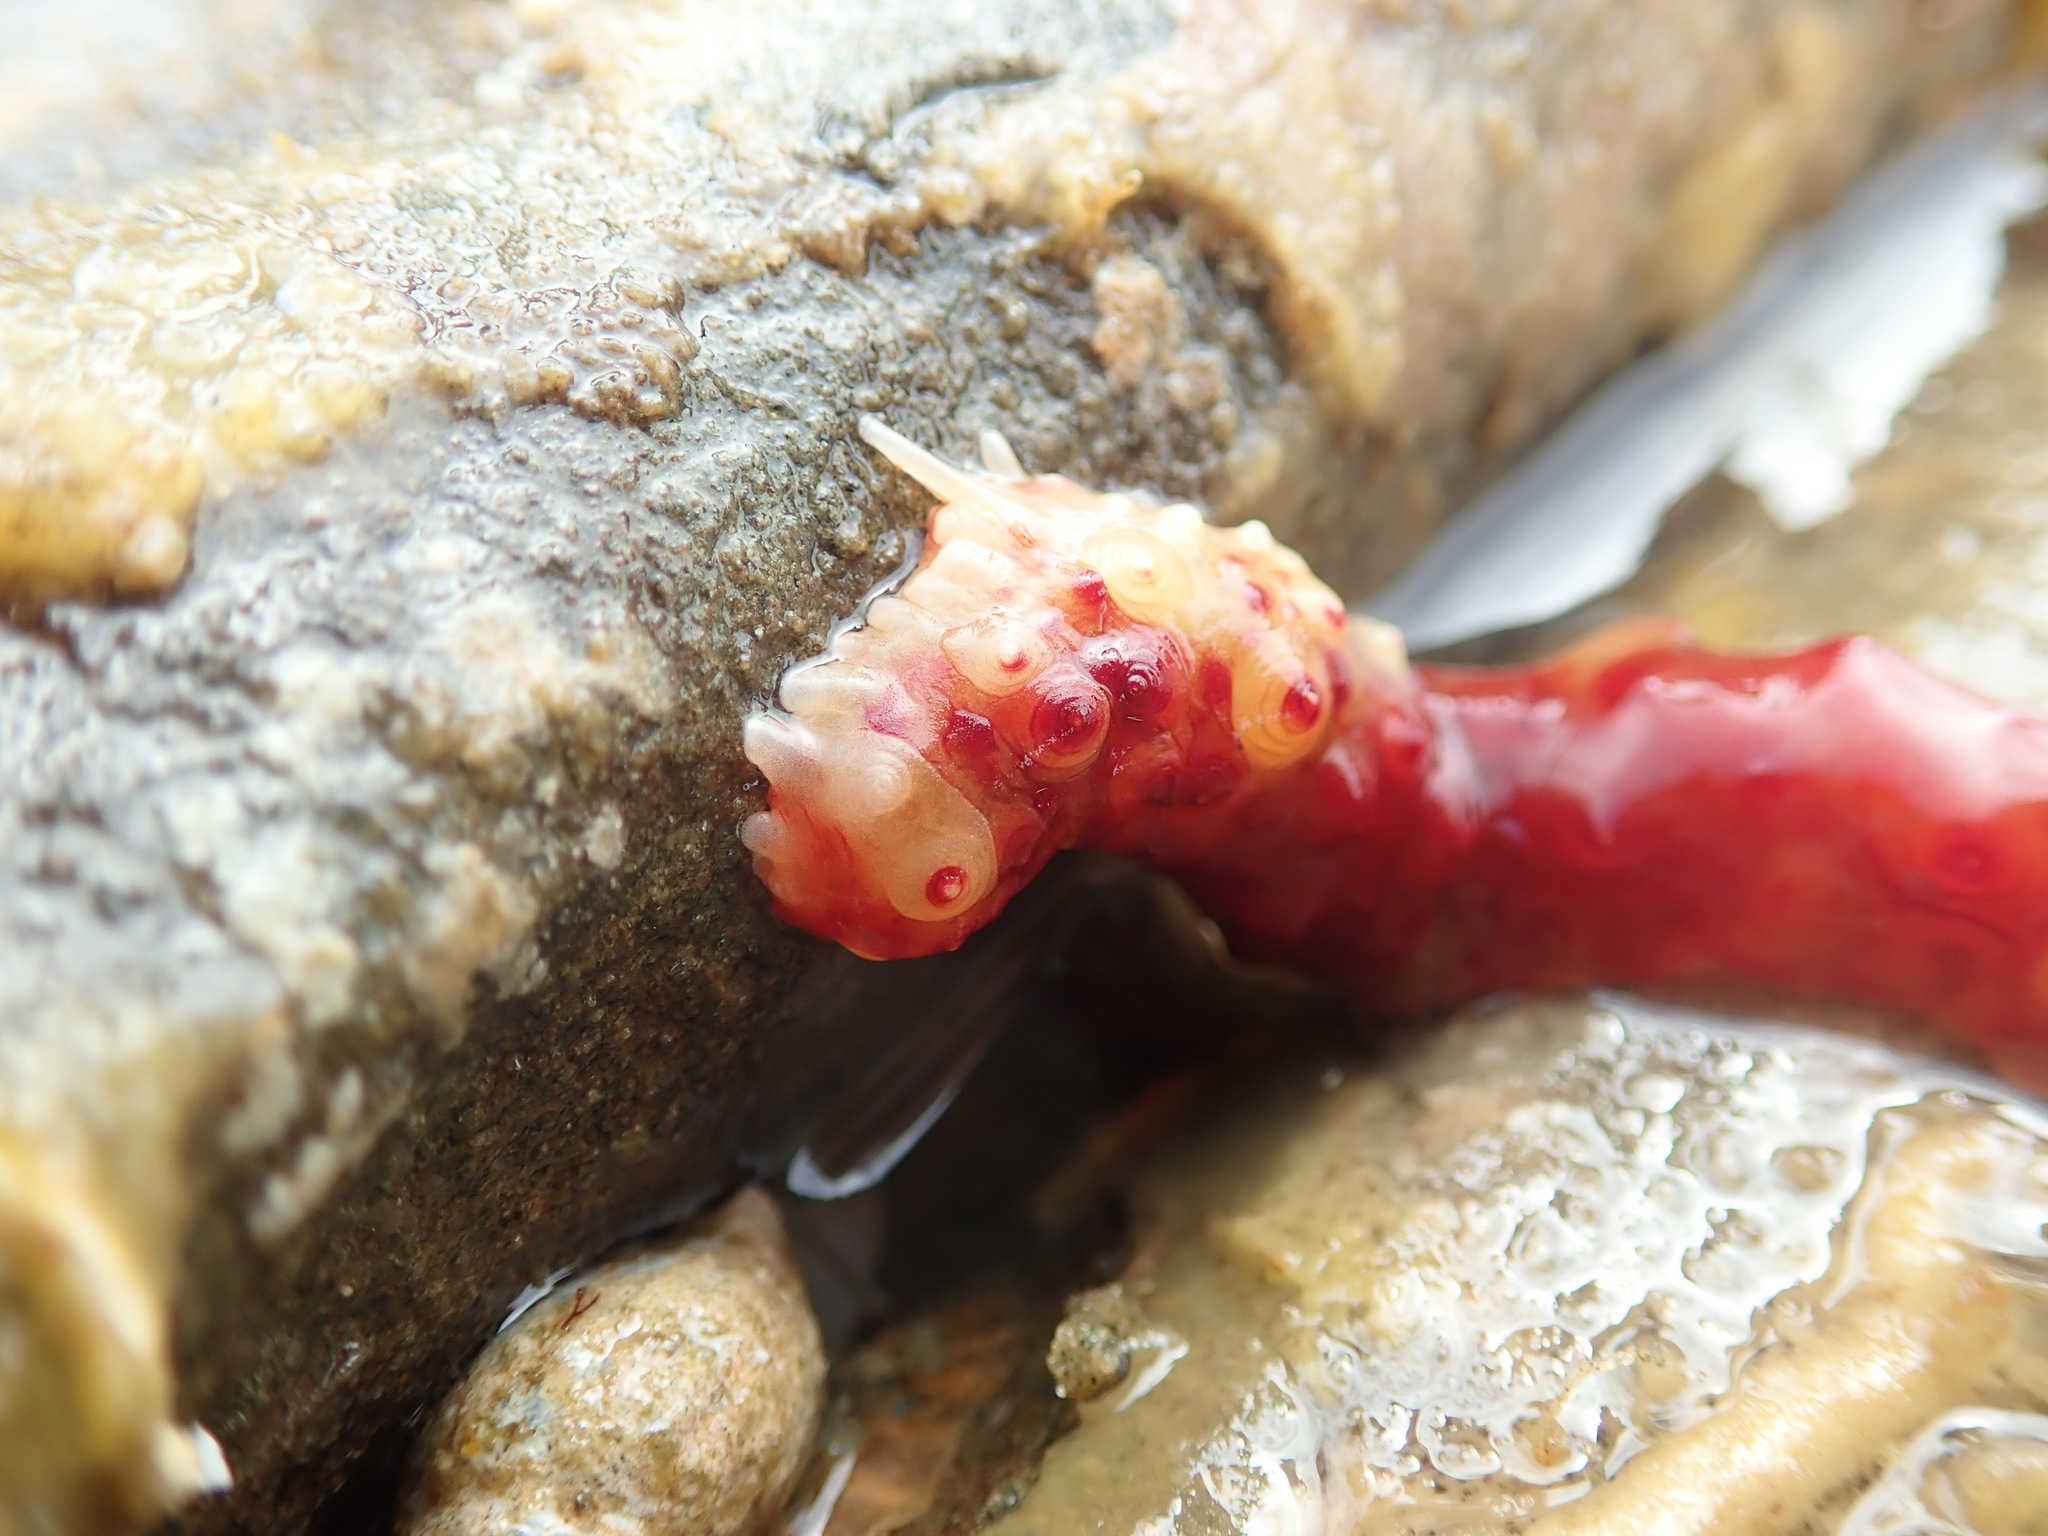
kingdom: Animalia
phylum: Echinodermata
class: Holothuroidea
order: Synallactida
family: Stichopodidae
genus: Apostichopus
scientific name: Apostichopus californicus
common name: California sea cucumber
